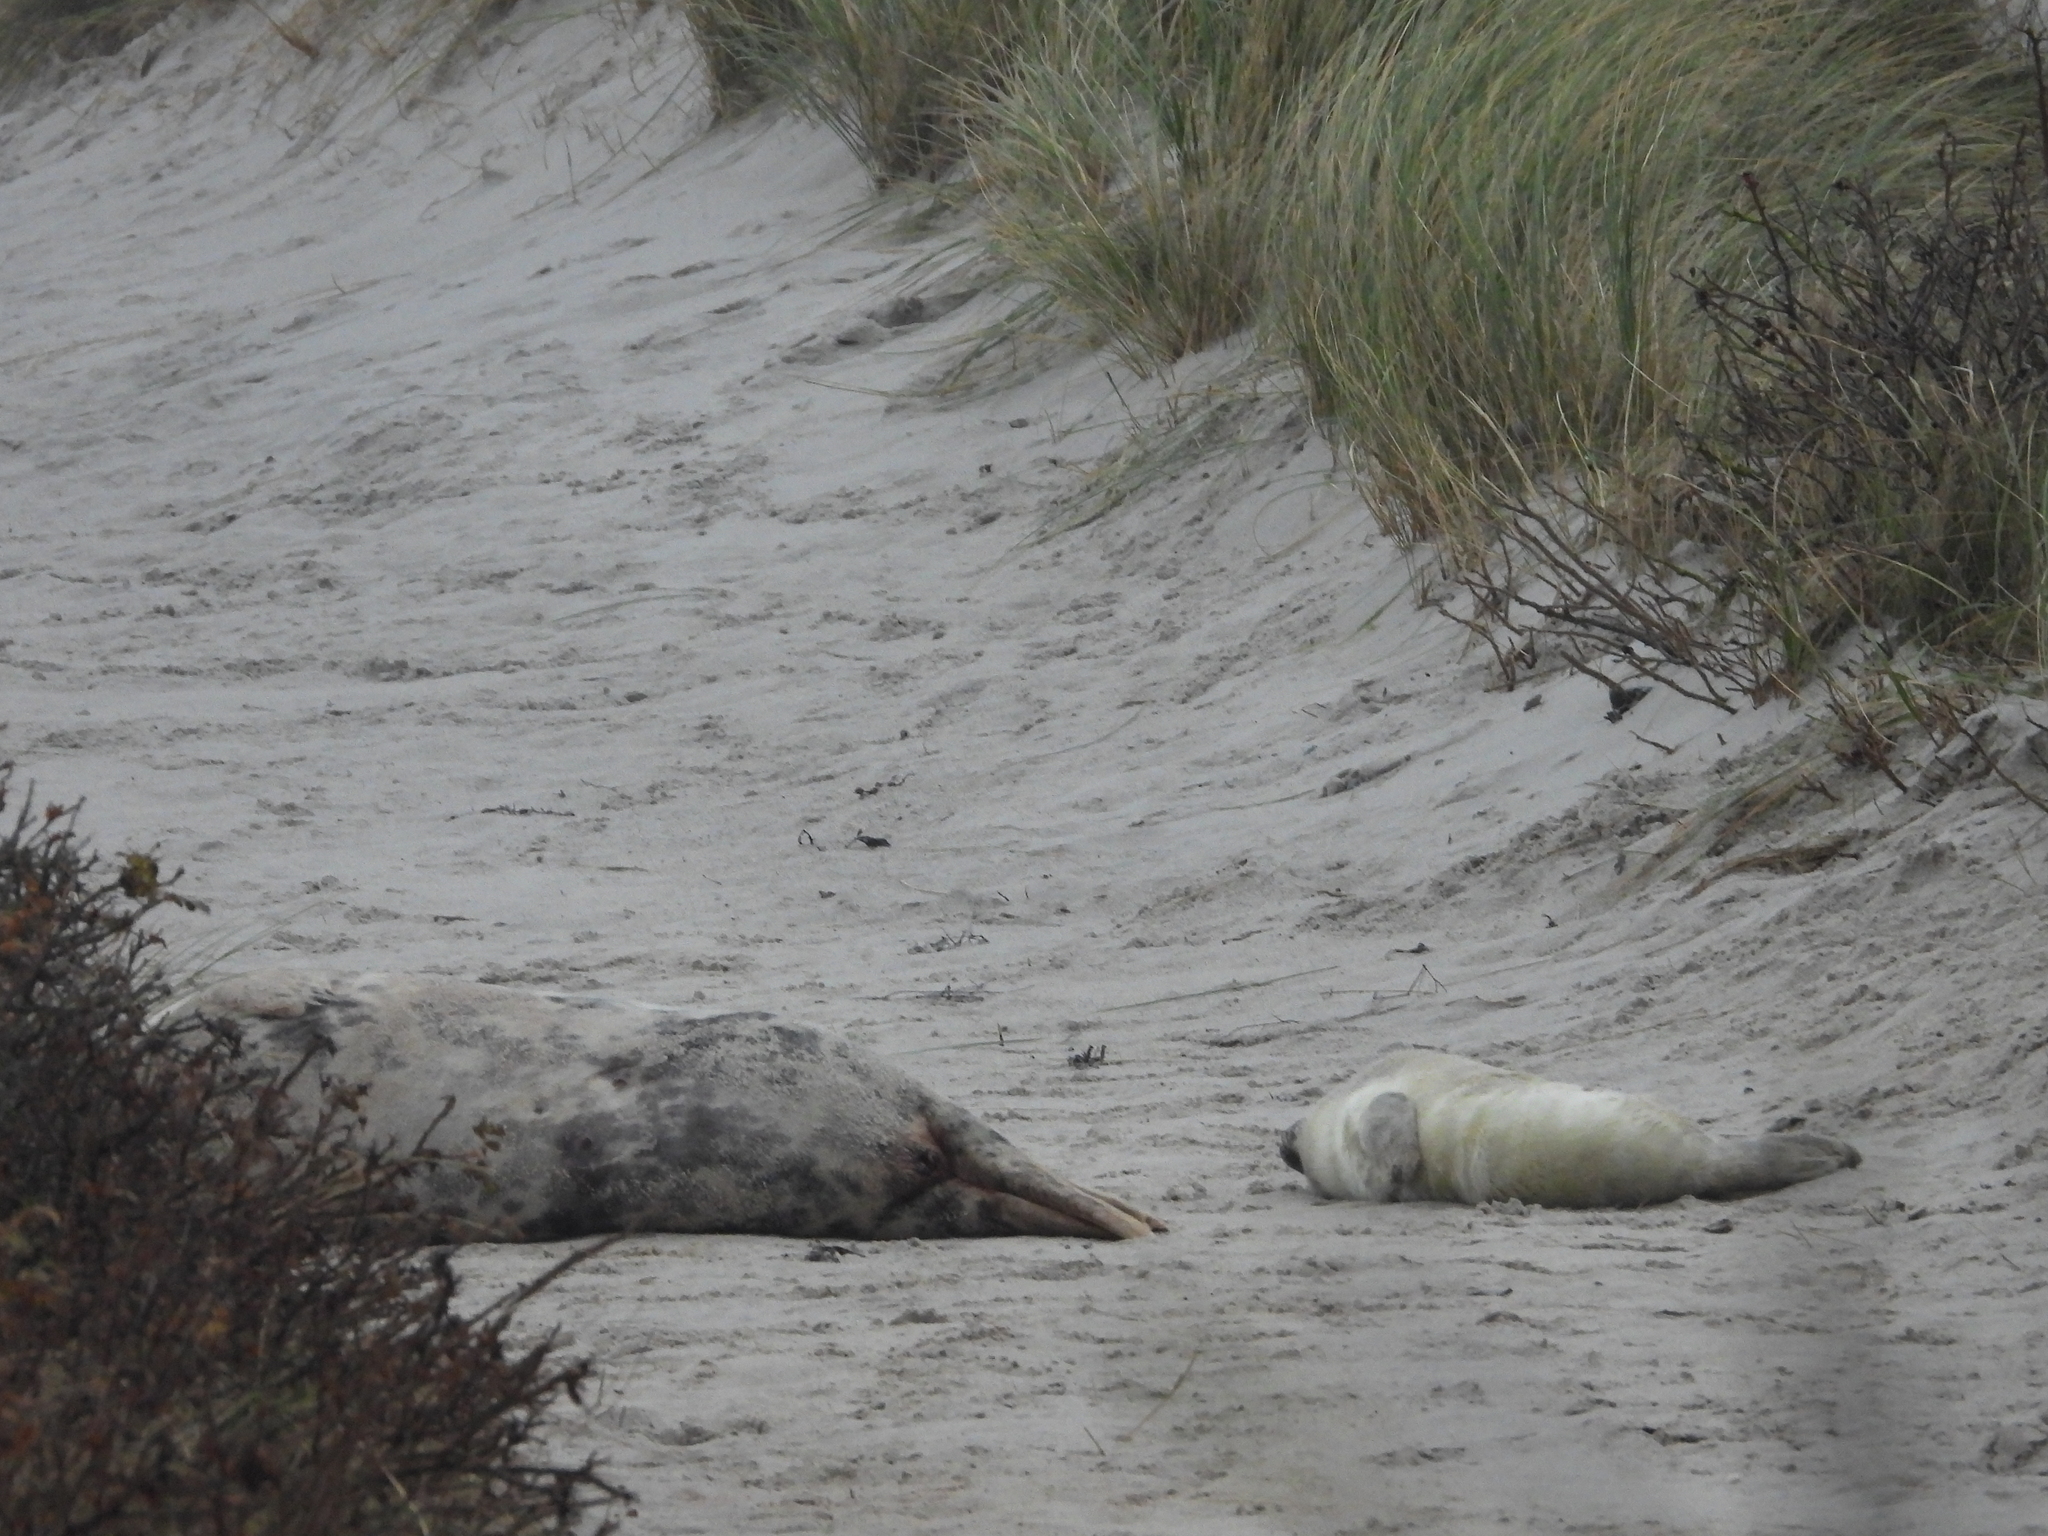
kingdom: Animalia
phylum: Chordata
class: Mammalia
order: Carnivora
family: Phocidae
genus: Halichoerus
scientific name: Halichoerus grypus
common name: Grey seal
